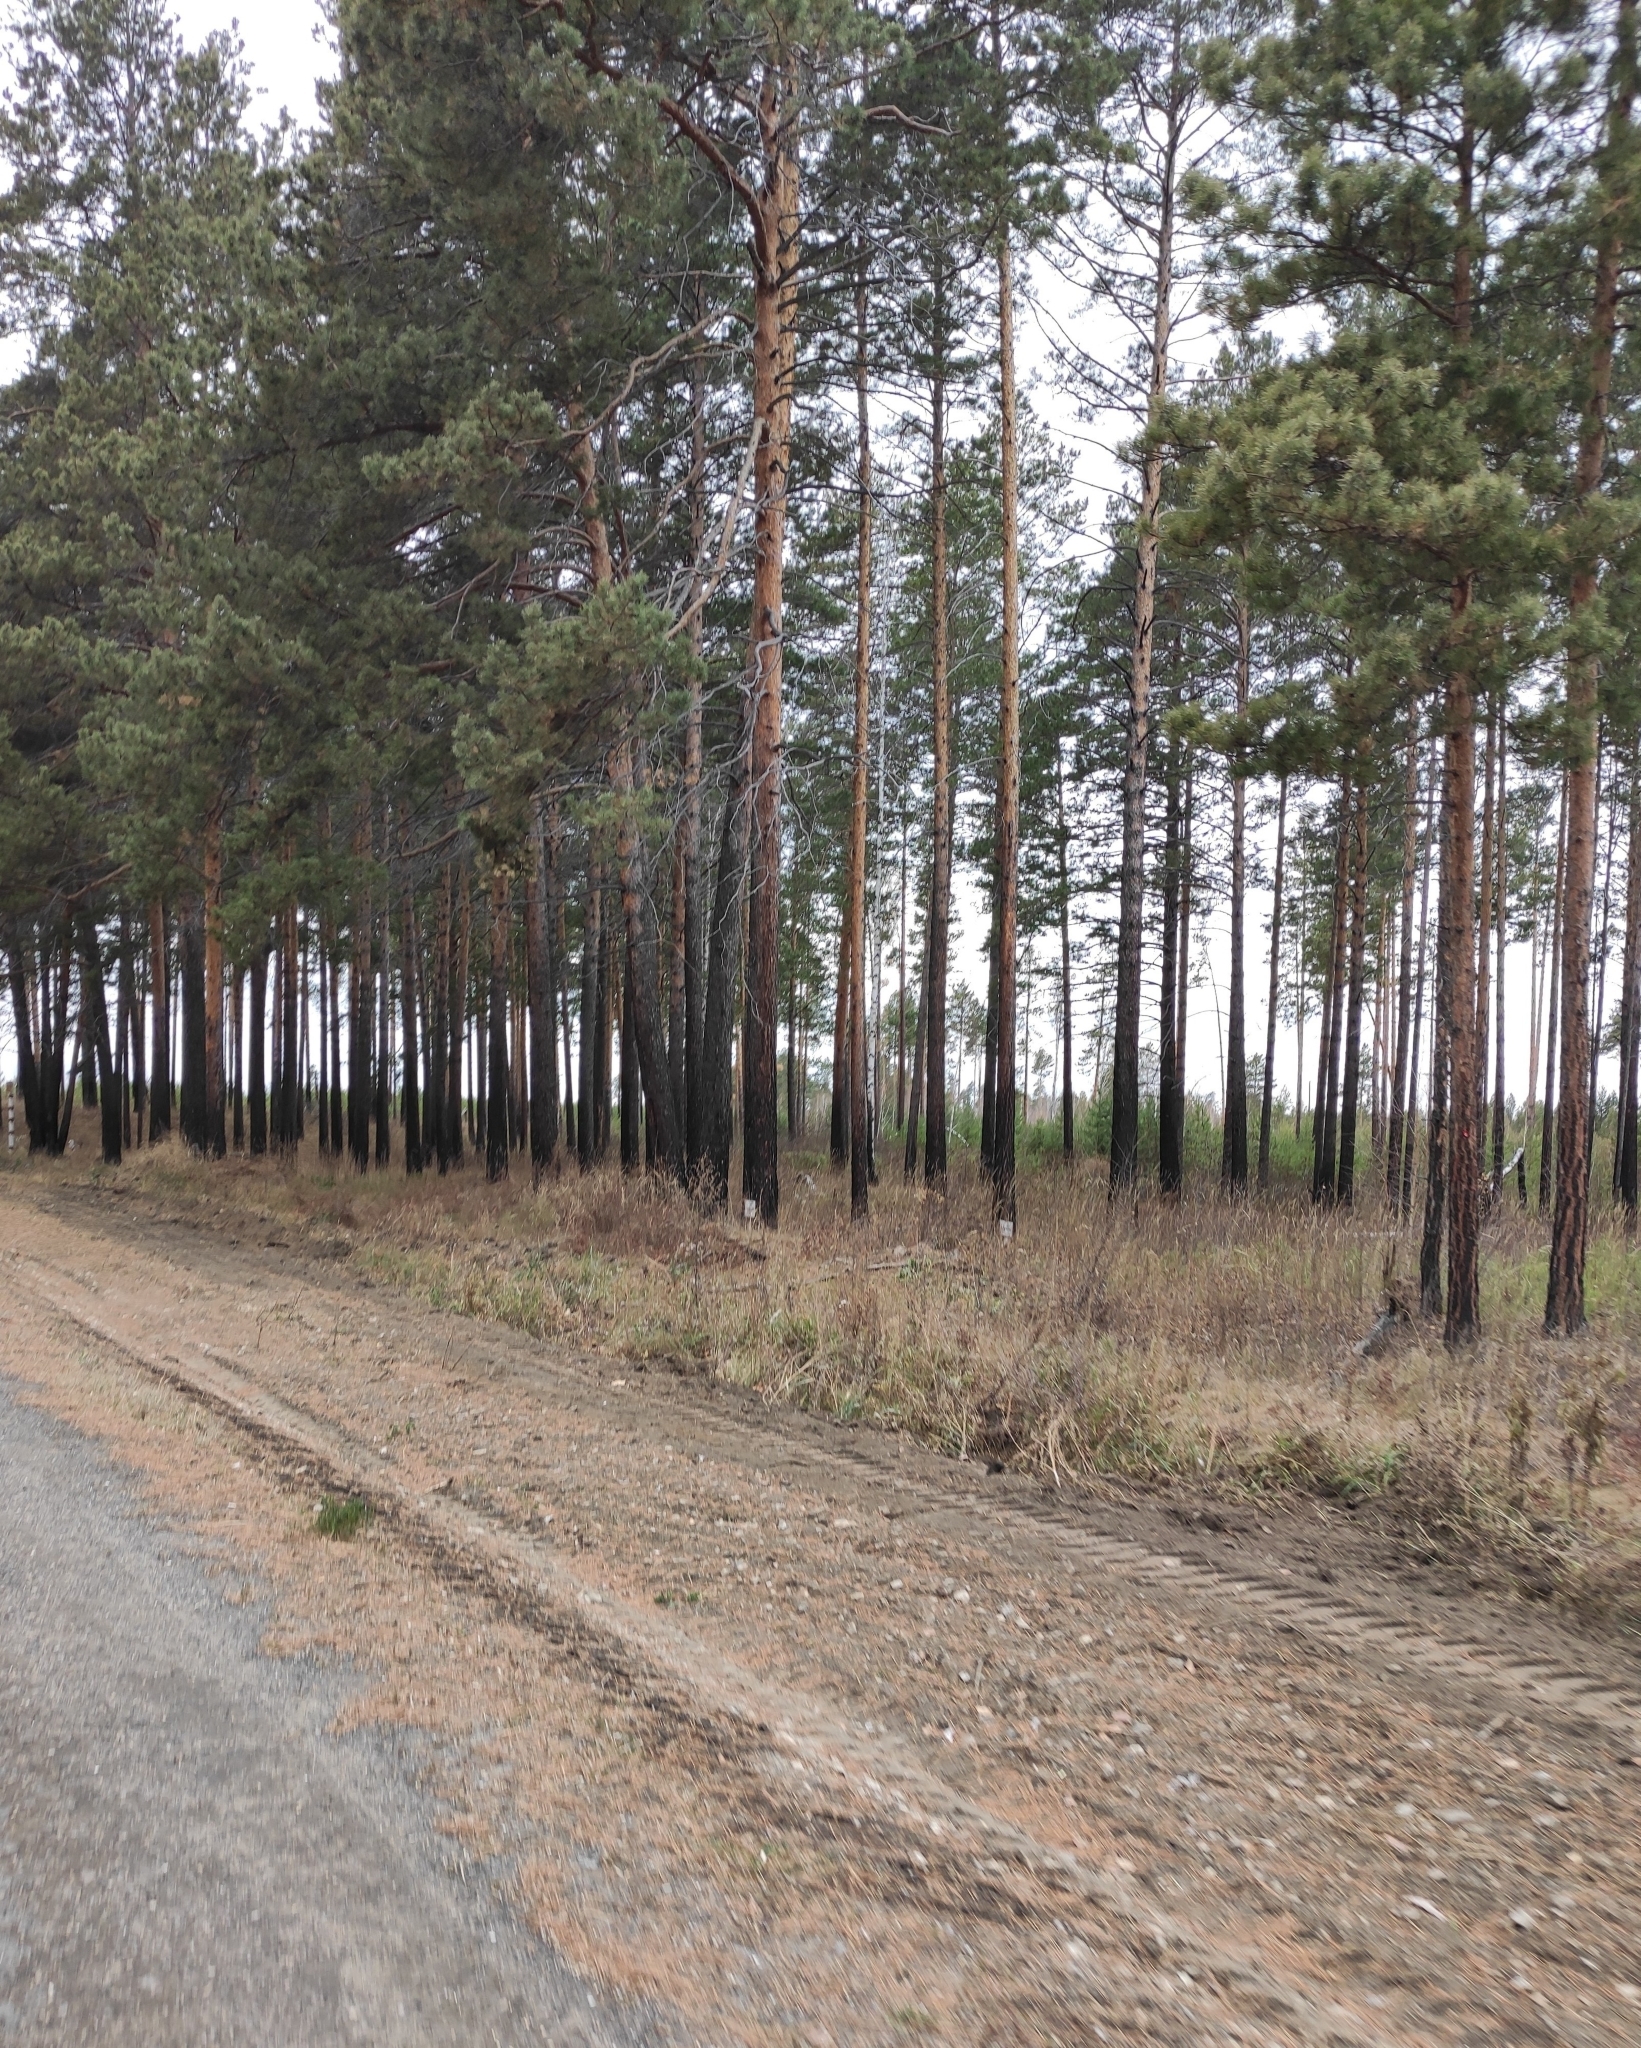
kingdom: Plantae
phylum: Tracheophyta
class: Pinopsida
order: Pinales
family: Pinaceae
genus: Pinus
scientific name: Pinus sylvestris
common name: Scots pine
